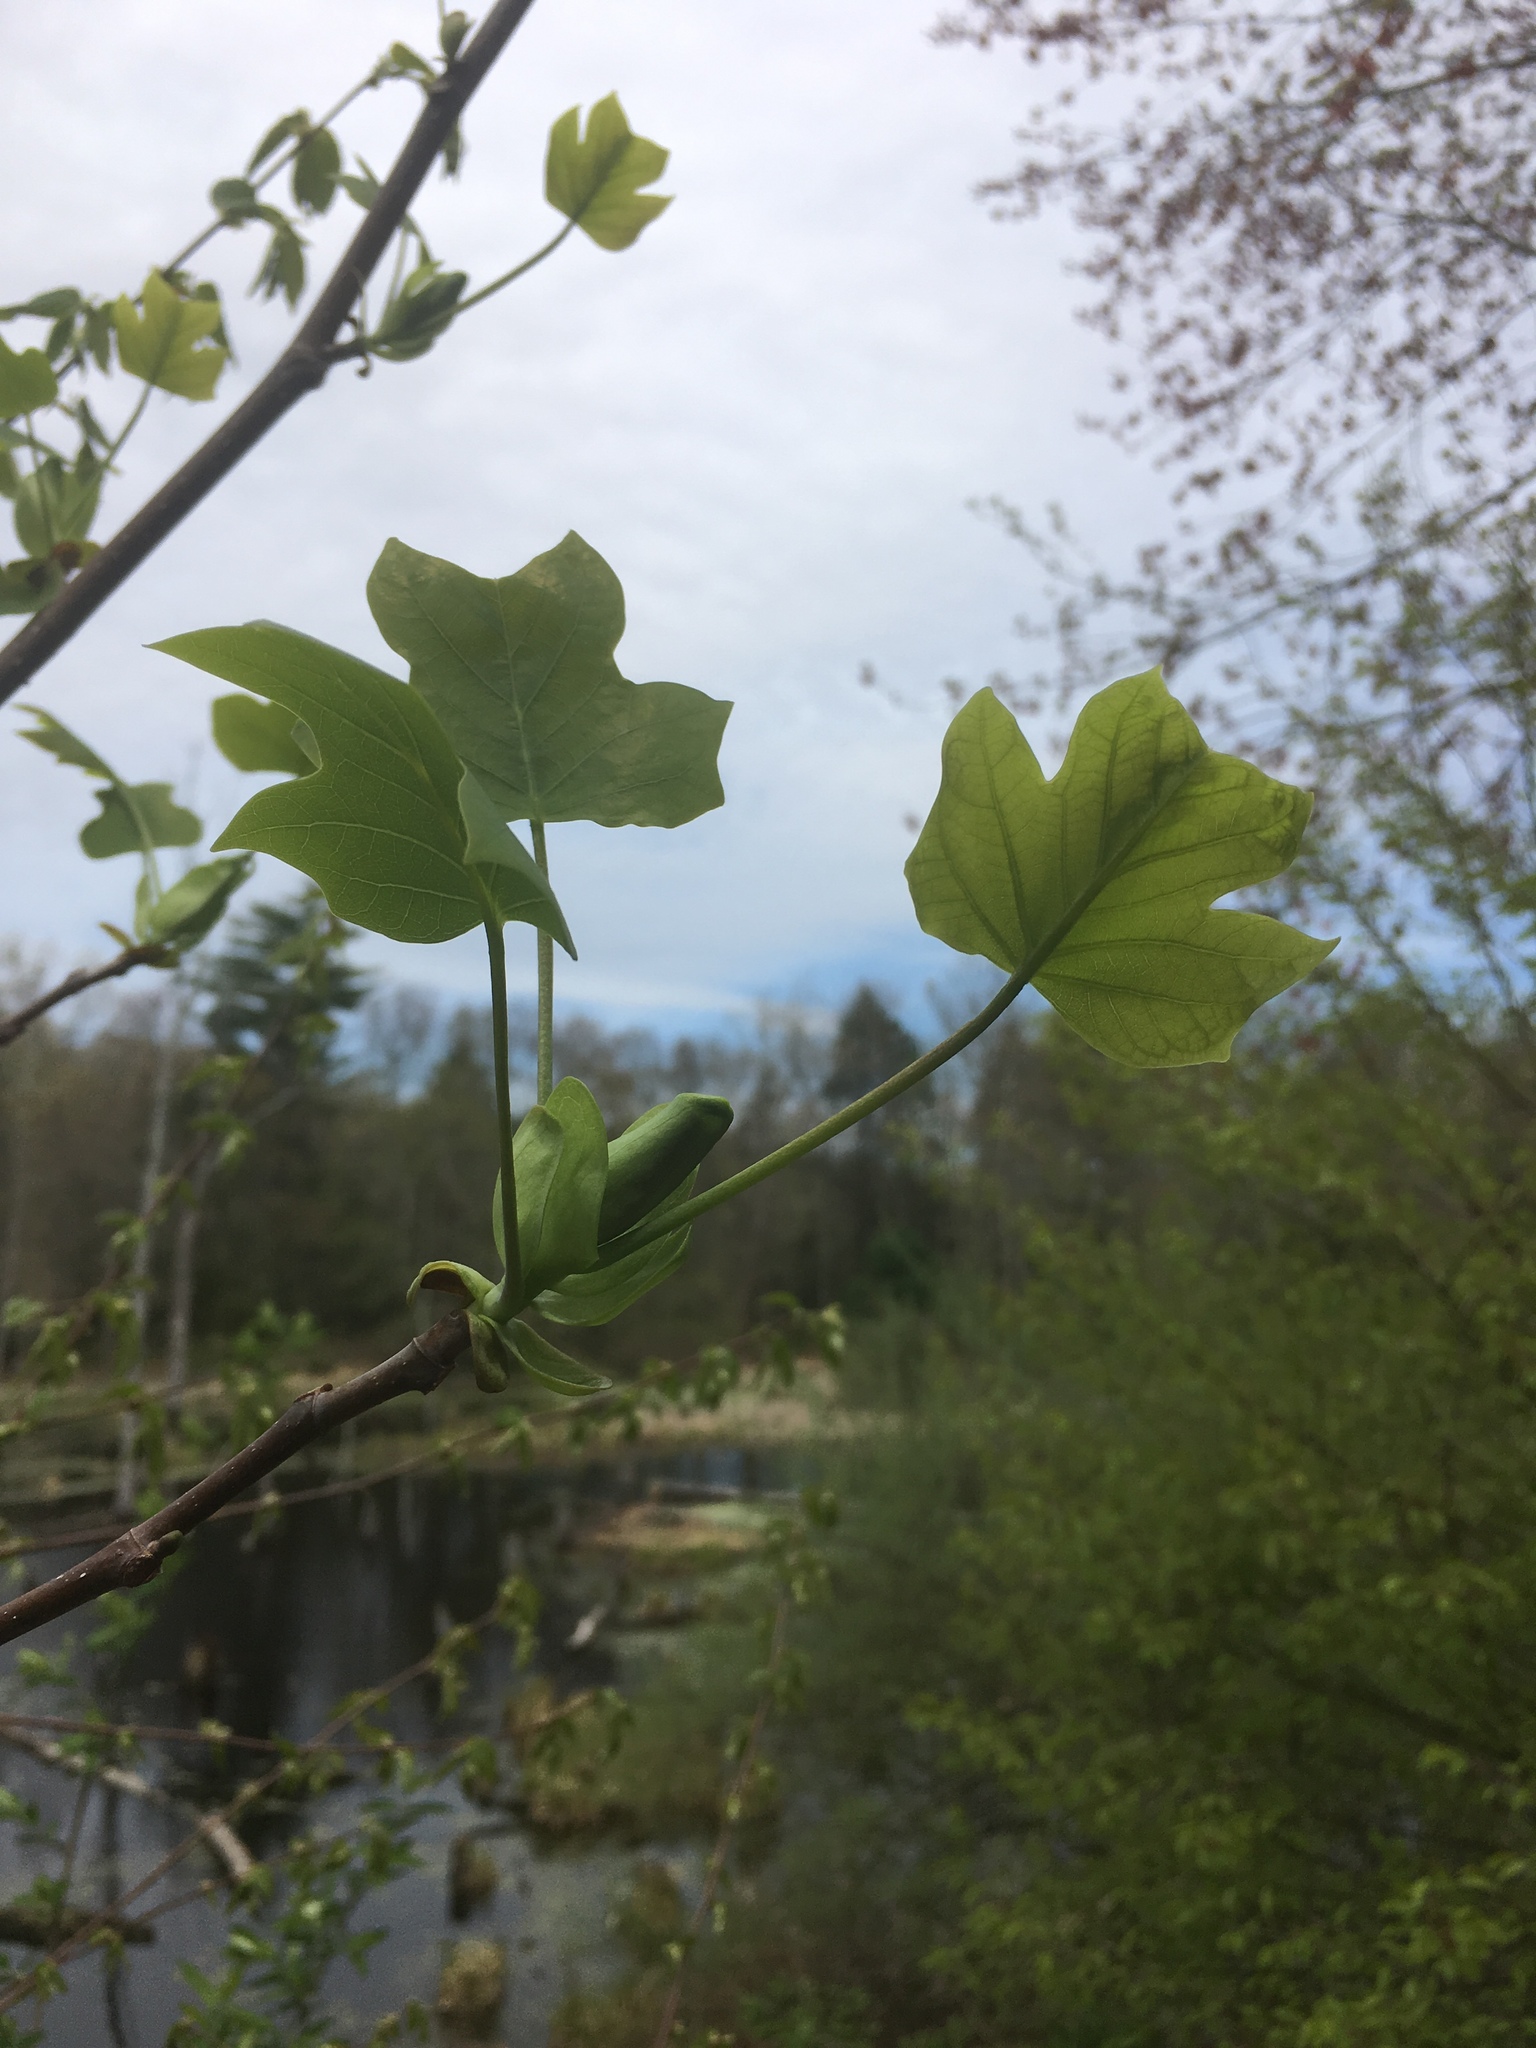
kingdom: Plantae
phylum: Tracheophyta
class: Magnoliopsida
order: Magnoliales
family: Magnoliaceae
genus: Liriodendron
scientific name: Liriodendron tulipifera
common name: Tulip tree
